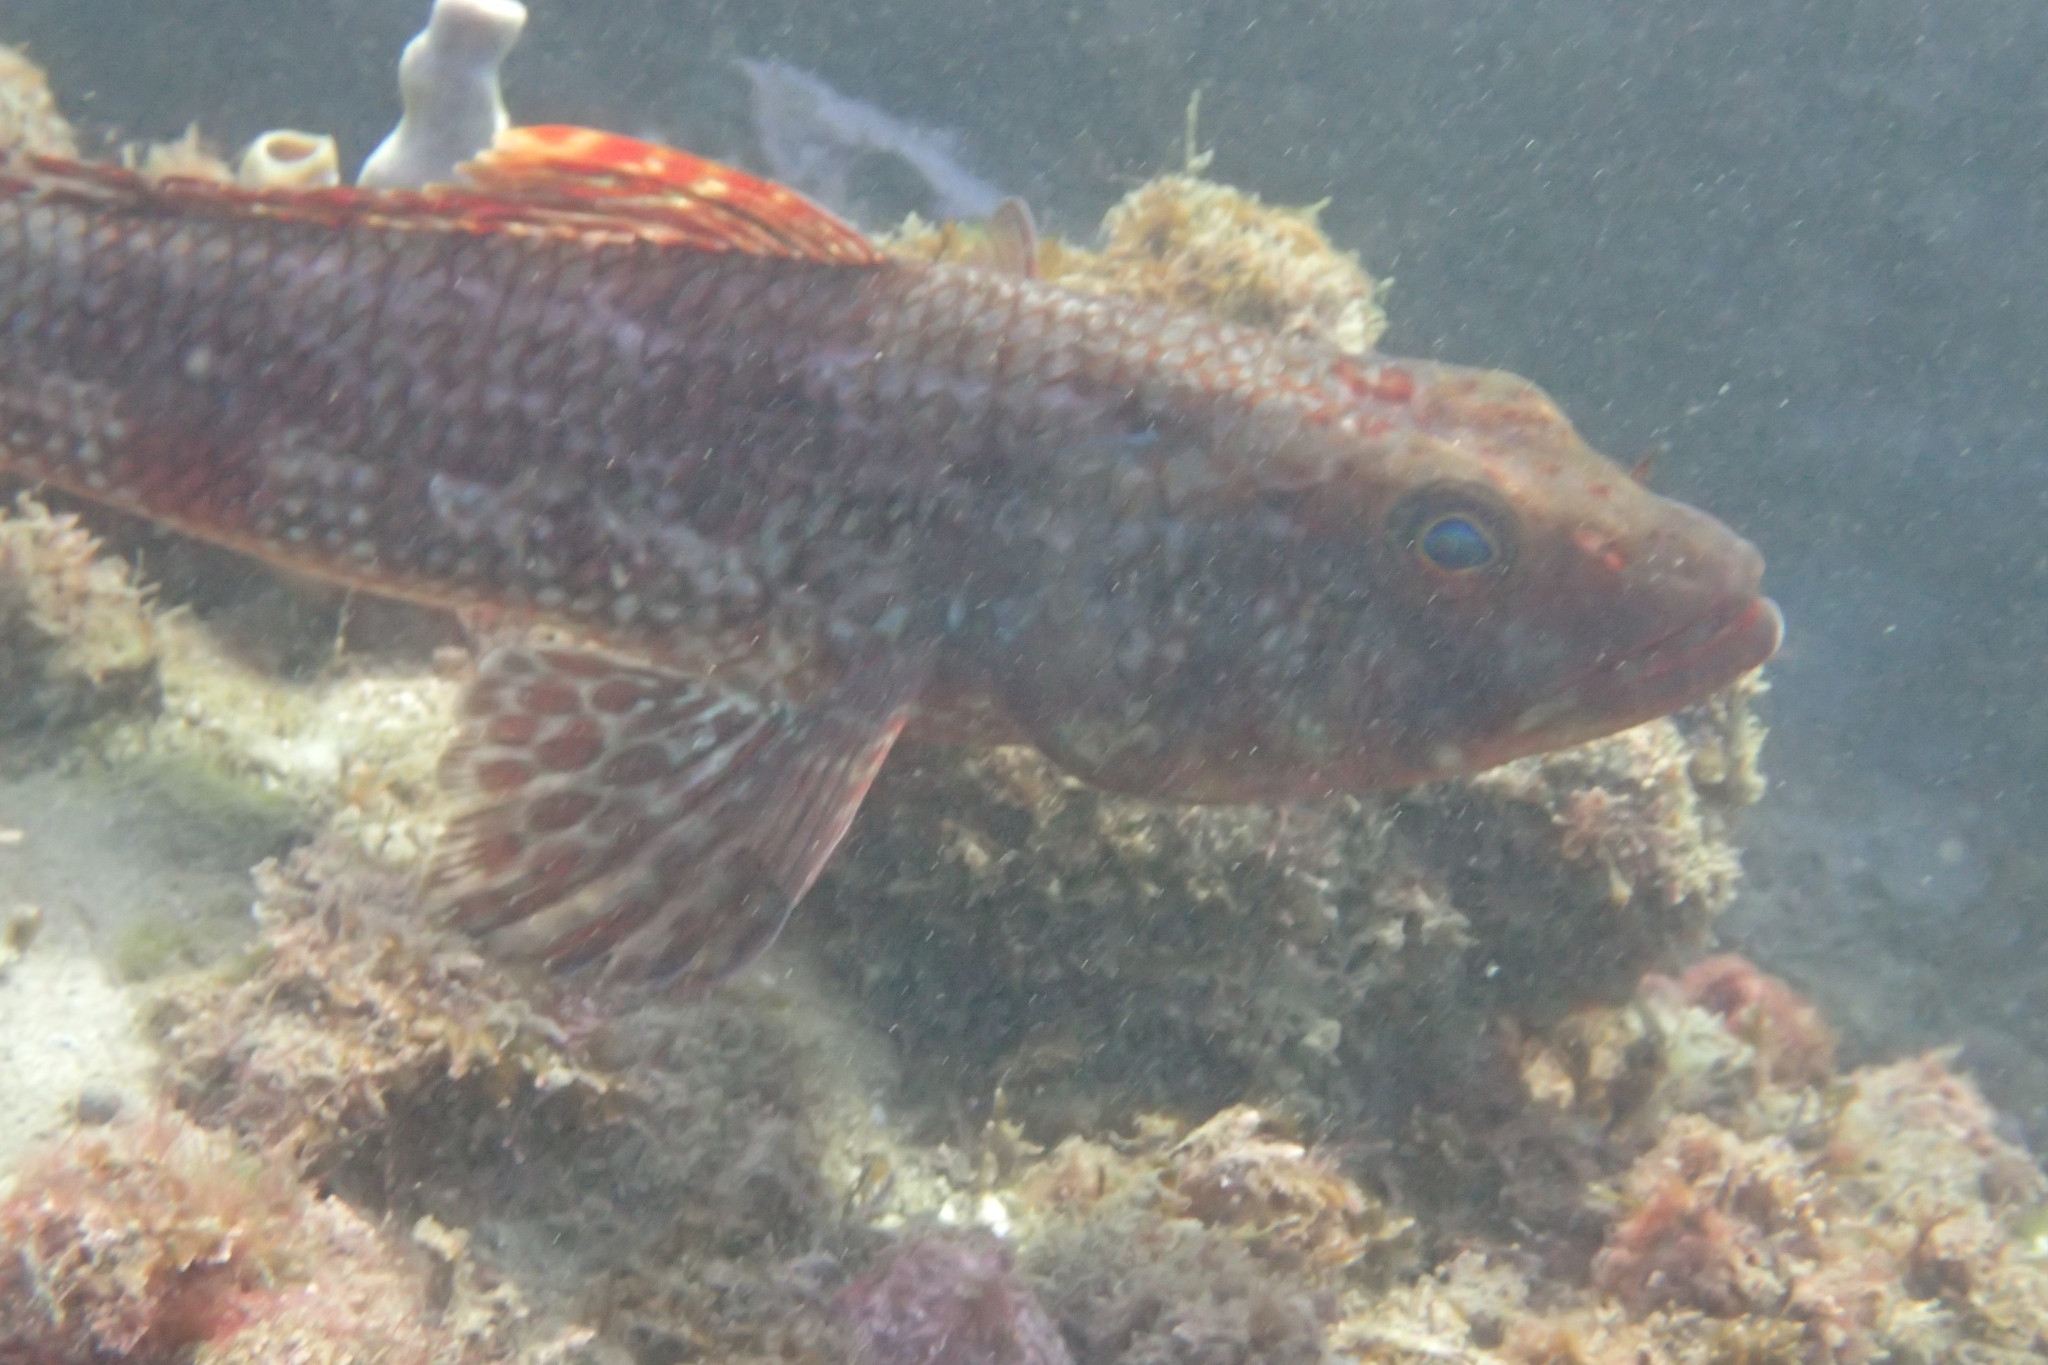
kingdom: Animalia
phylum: Chordata
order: Aulopiformes
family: Aulopidae
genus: Latropiscis
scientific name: Latropiscis purpurissatus
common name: Sergeant baker
